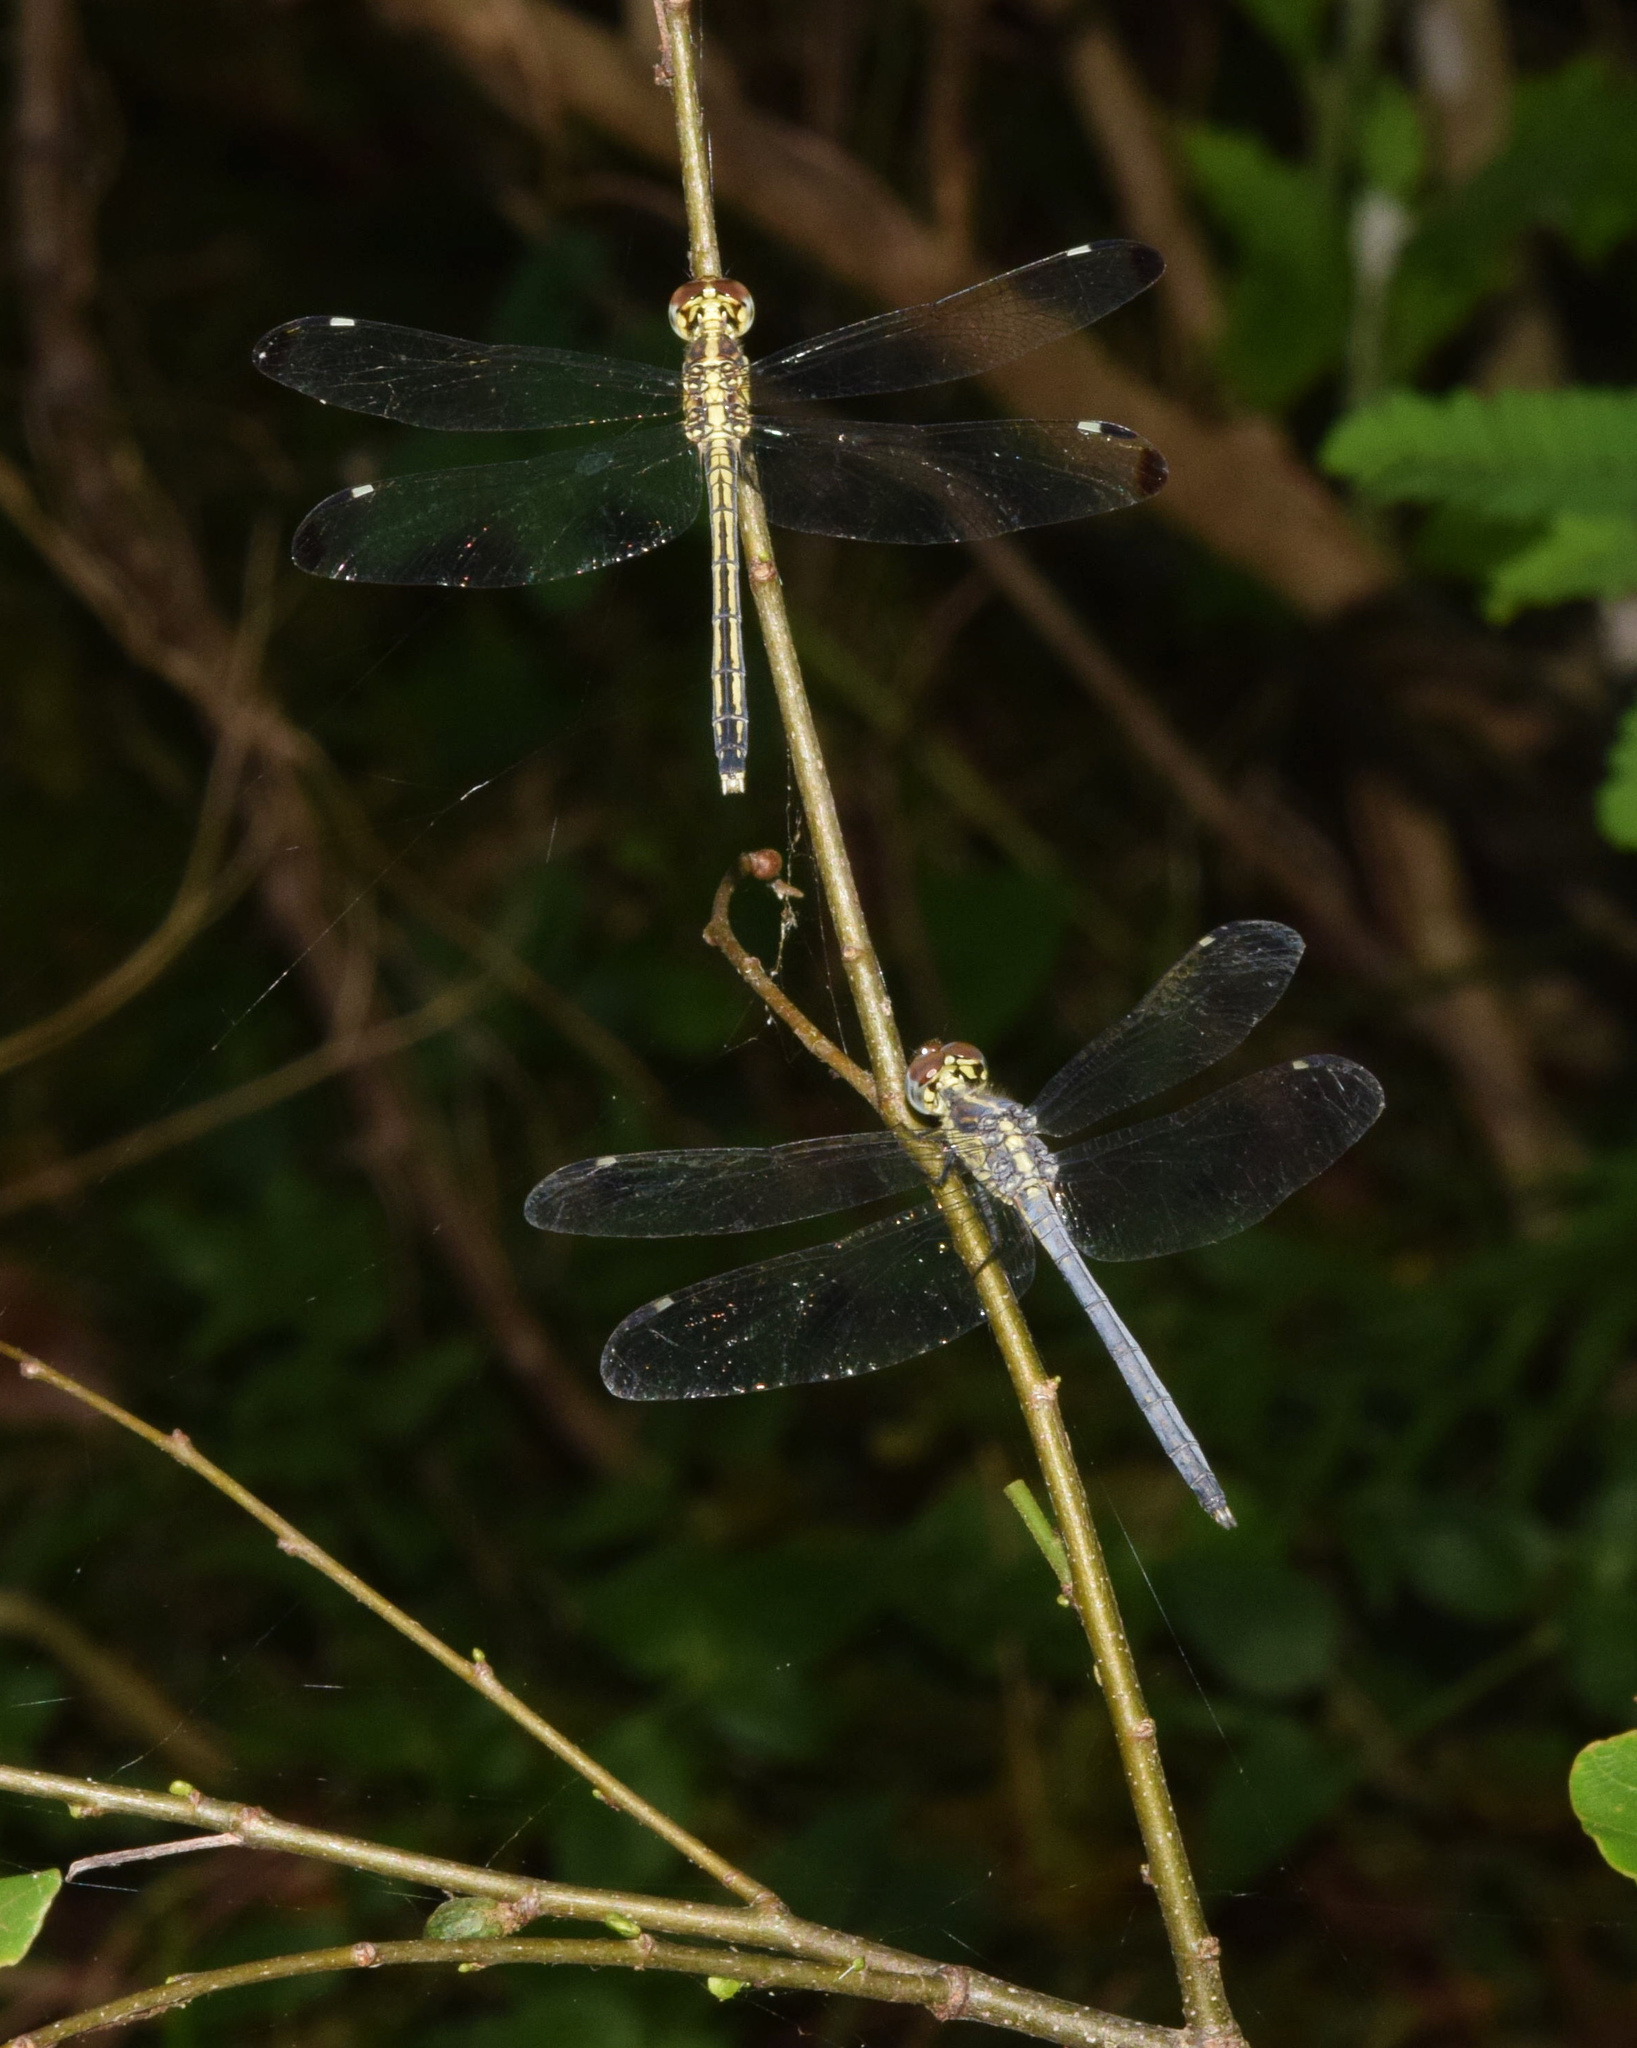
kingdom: Animalia
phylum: Arthropoda
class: Insecta
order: Odonata
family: Libellulidae
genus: Hemistigma
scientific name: Hemistigma albipunctum
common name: African pied-spot
